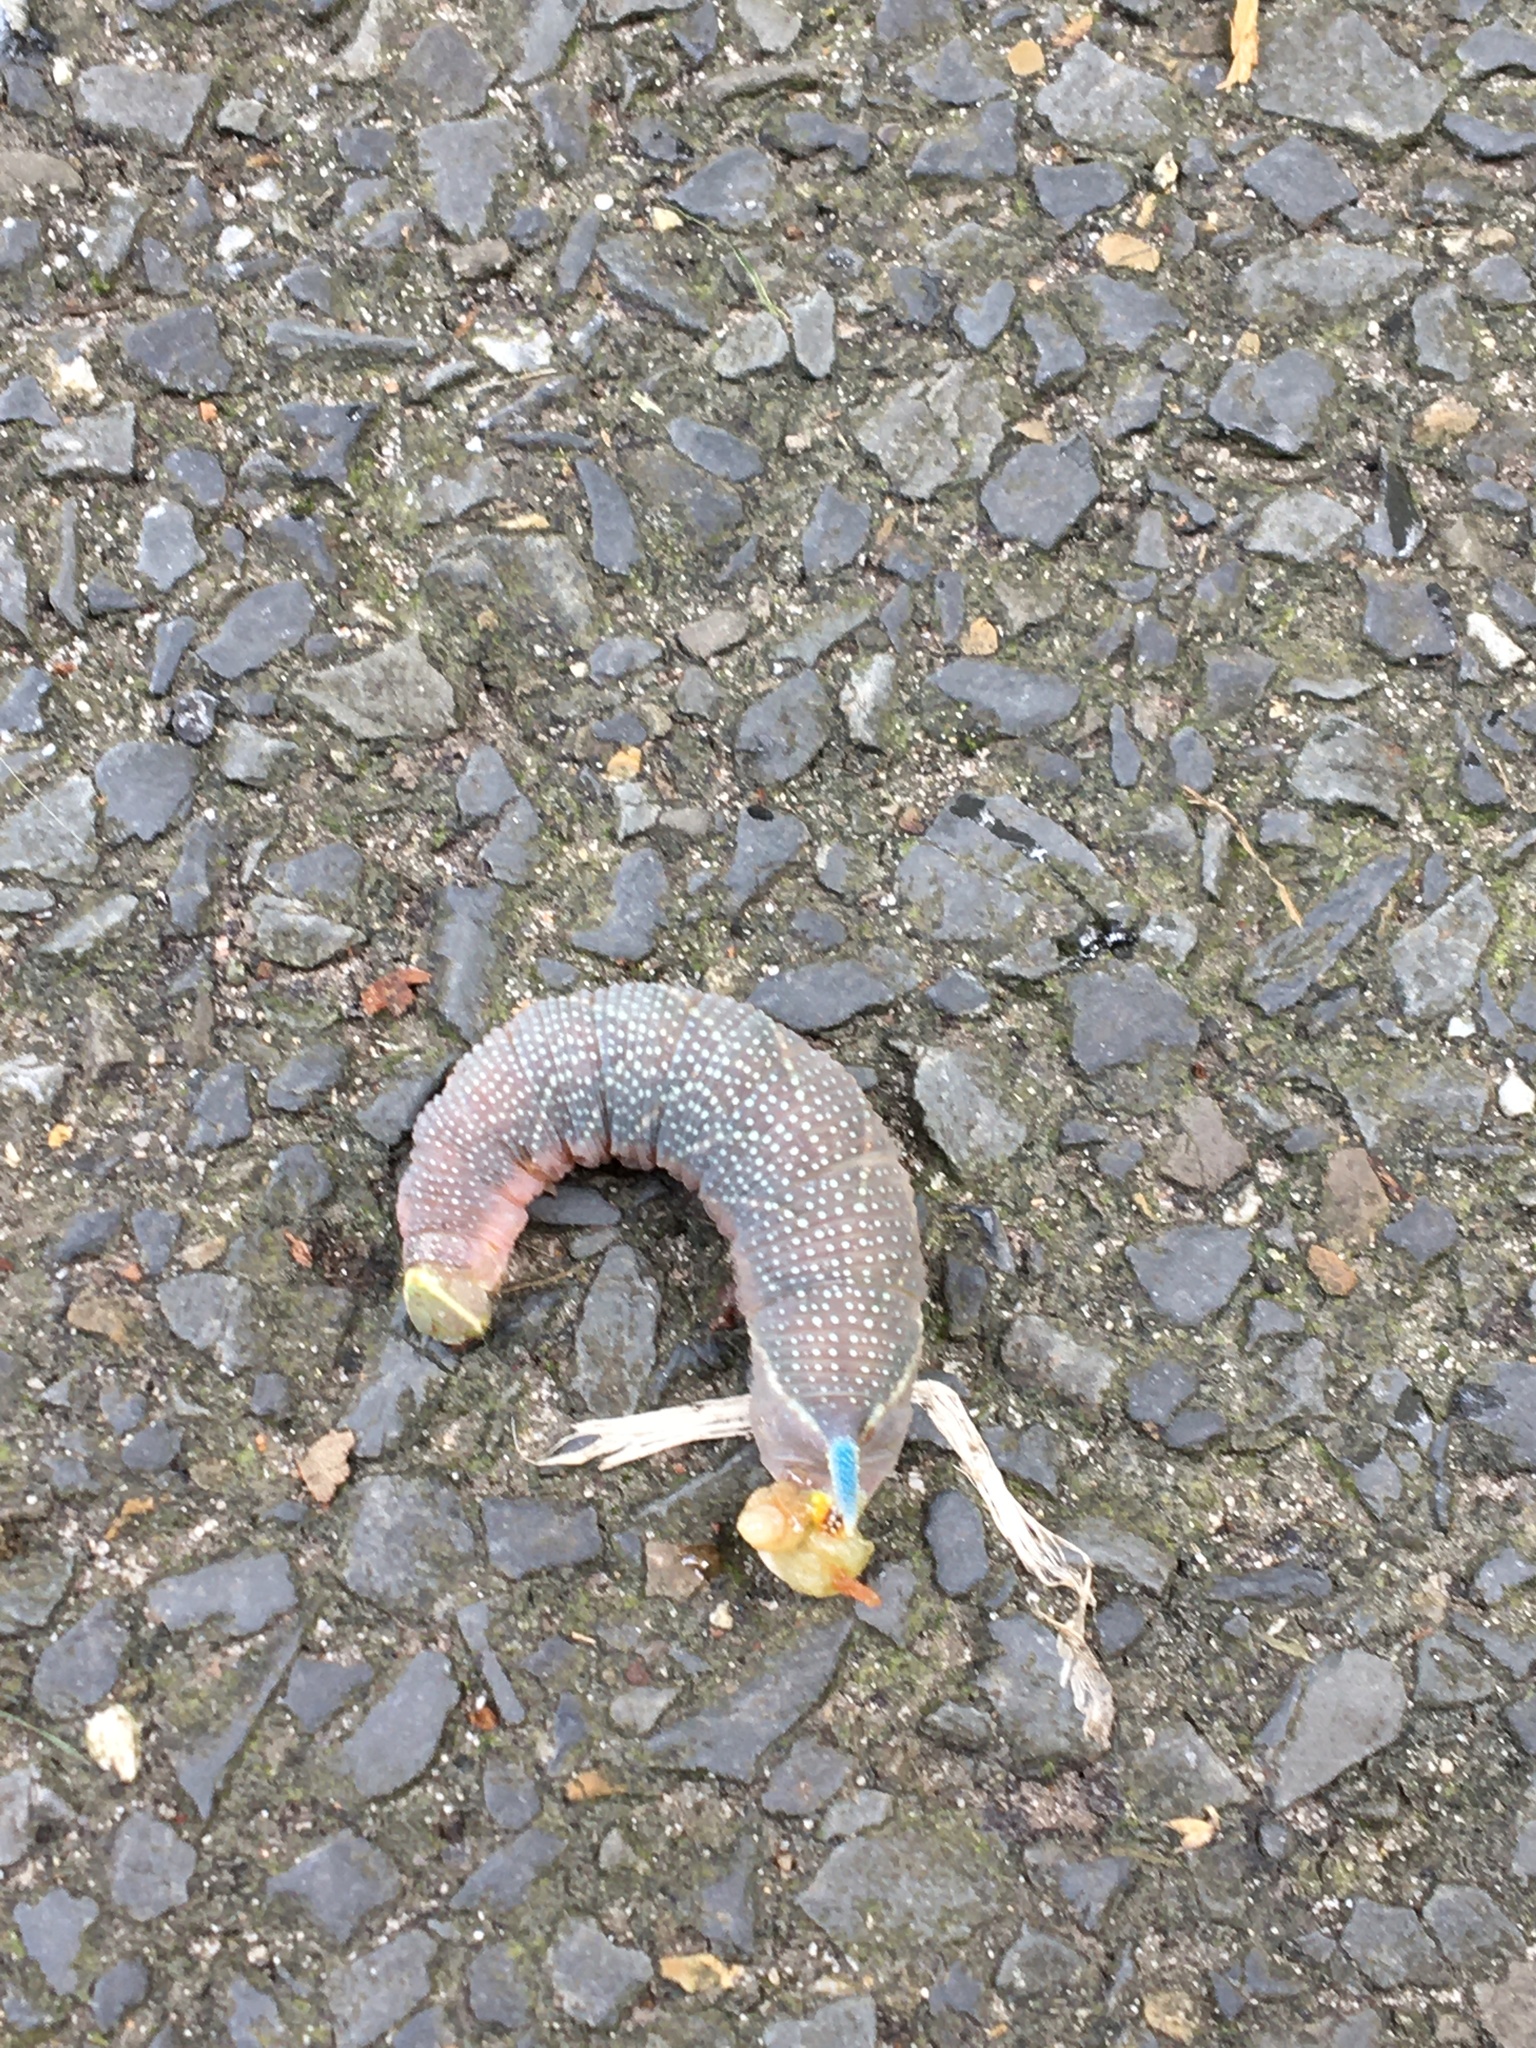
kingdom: Animalia
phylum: Arthropoda
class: Insecta
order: Lepidoptera
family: Sphingidae
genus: Mimas
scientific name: Mimas tiliae
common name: Lime hawk-moth
